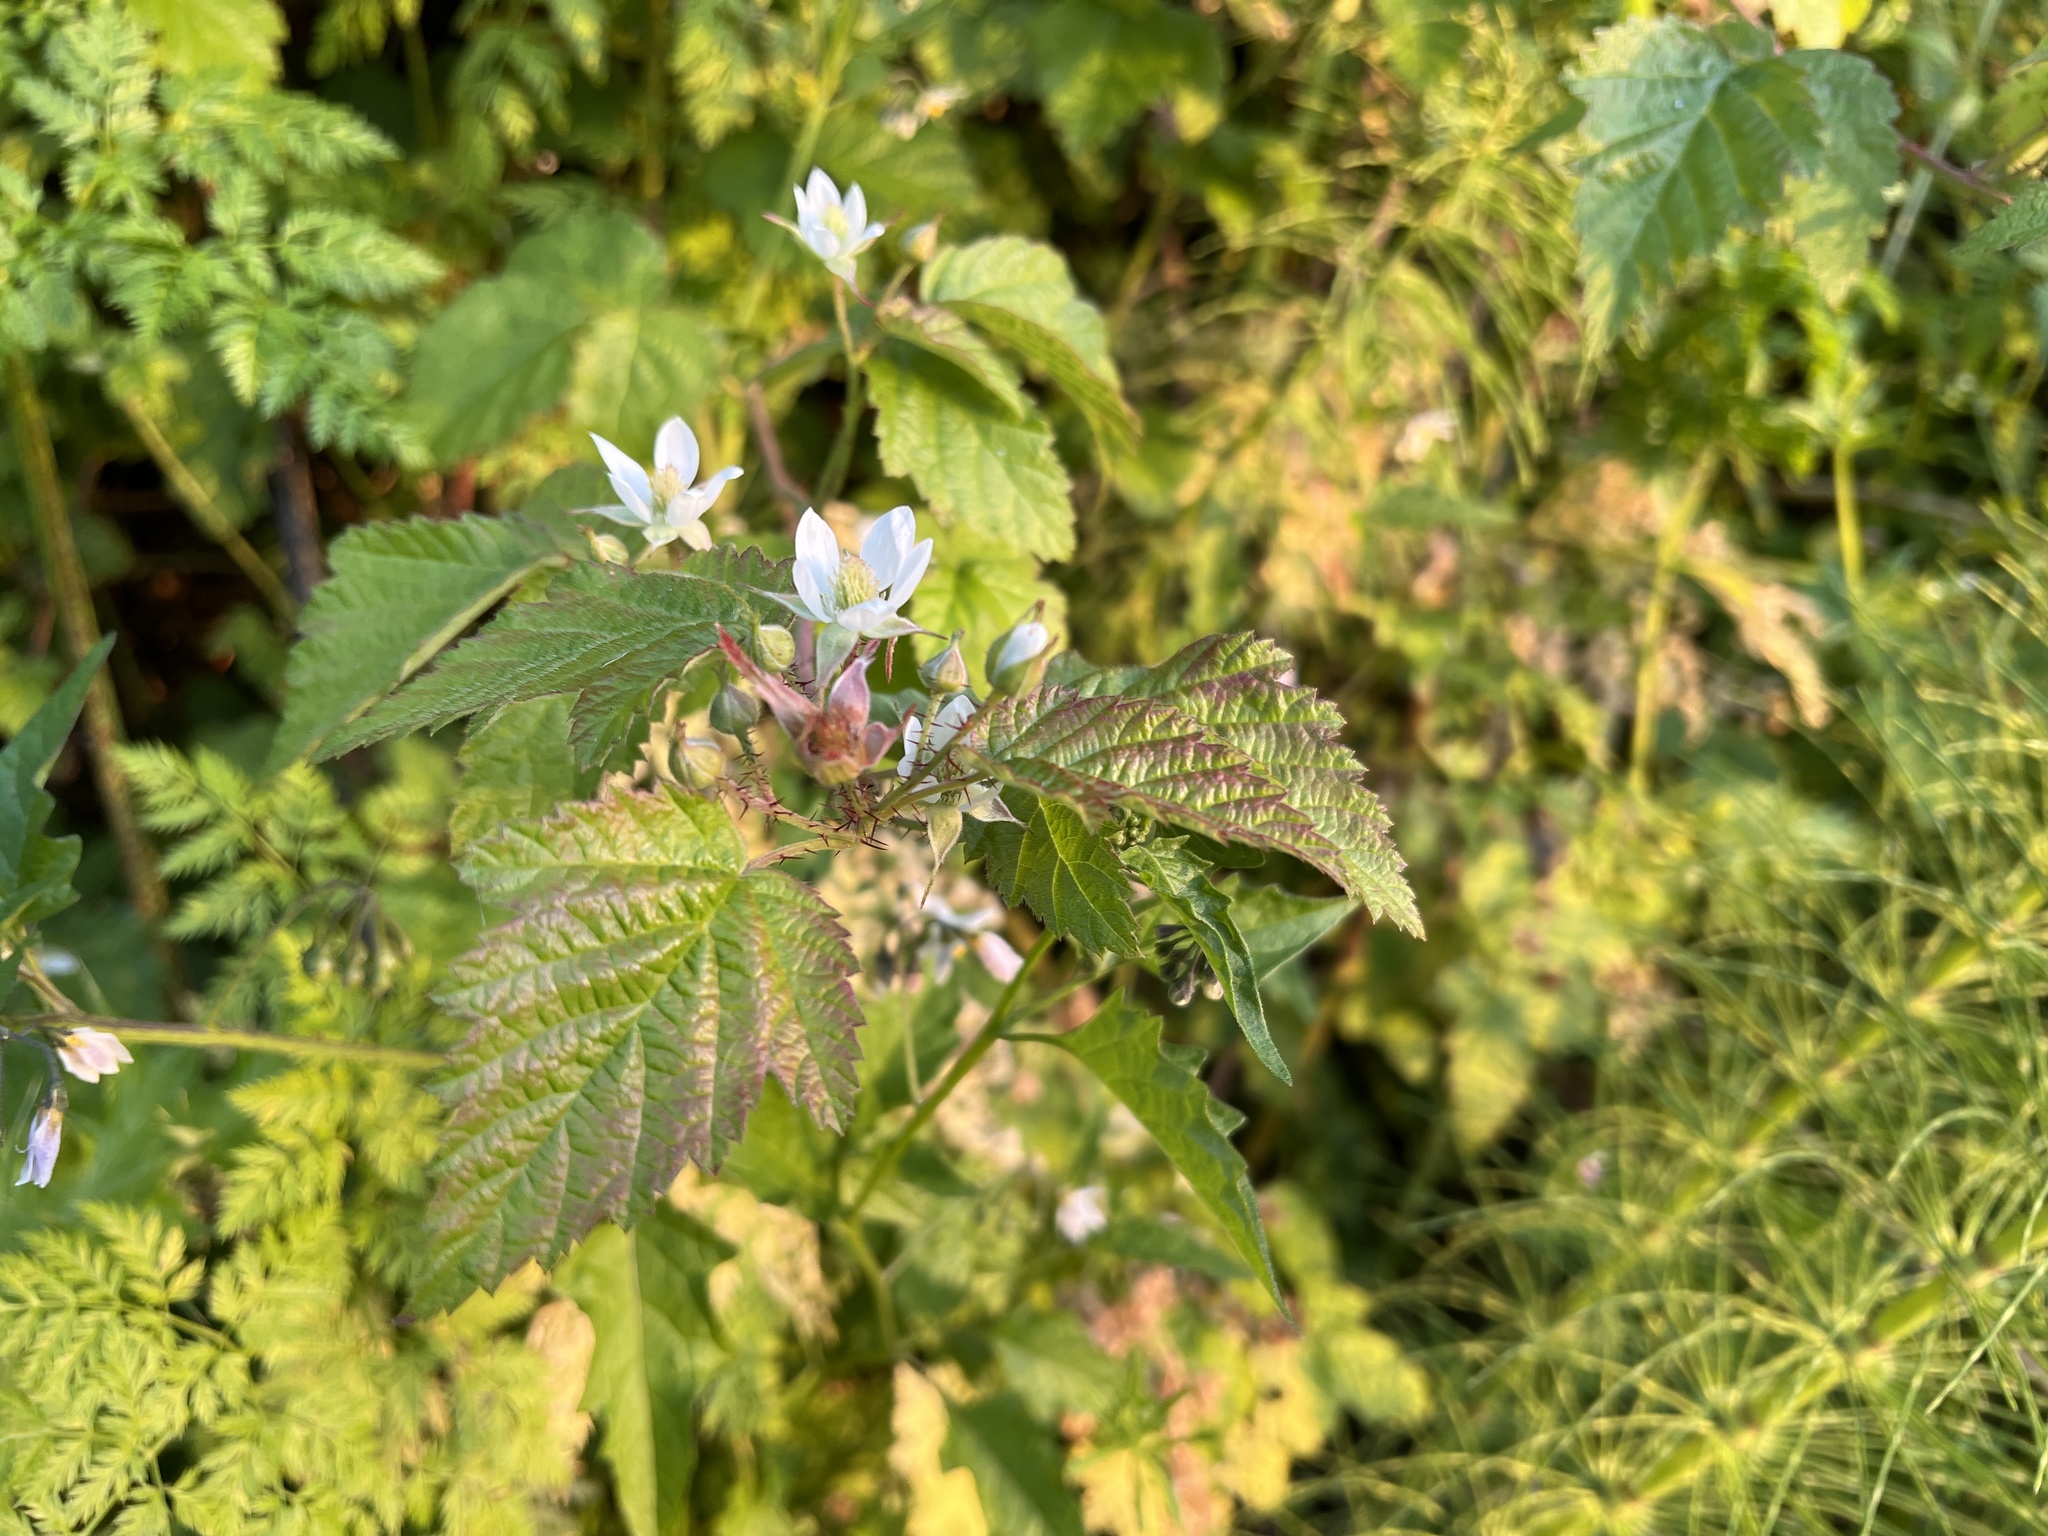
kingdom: Plantae
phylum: Tracheophyta
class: Magnoliopsida
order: Rosales
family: Rosaceae
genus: Rubus
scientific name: Rubus ursinus
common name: Pacific blackberry
